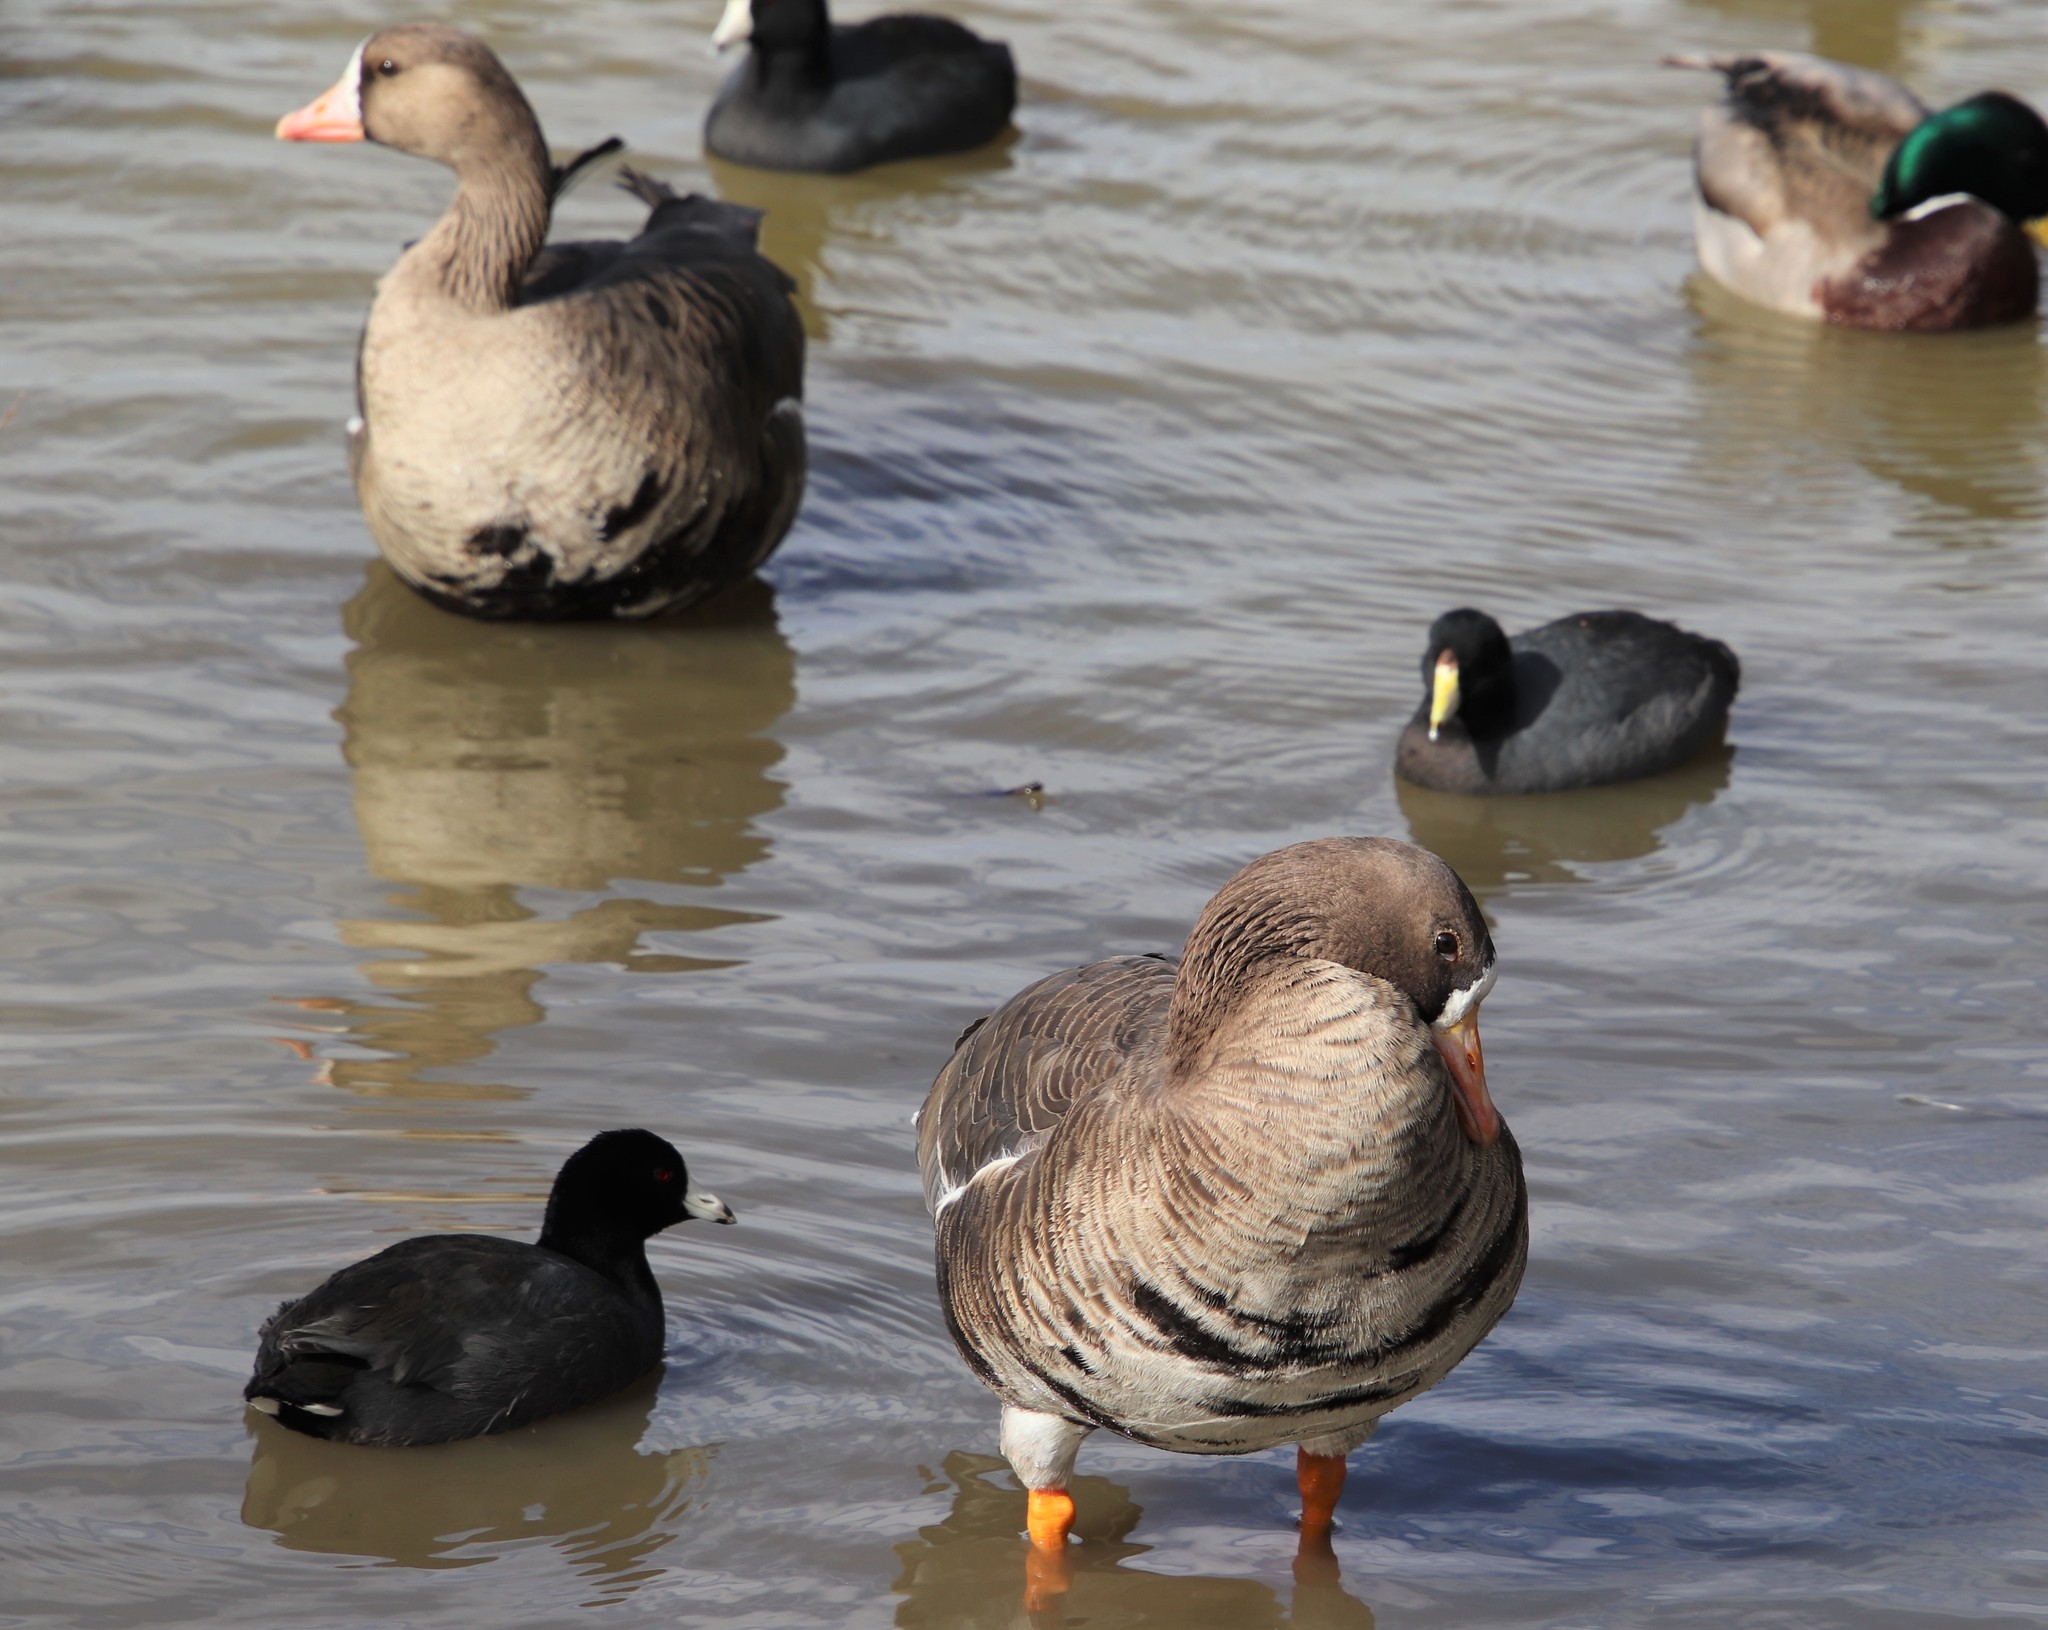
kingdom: Animalia
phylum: Chordata
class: Aves
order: Anseriformes
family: Anatidae
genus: Anser
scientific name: Anser albifrons
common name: Greater white-fronted goose
